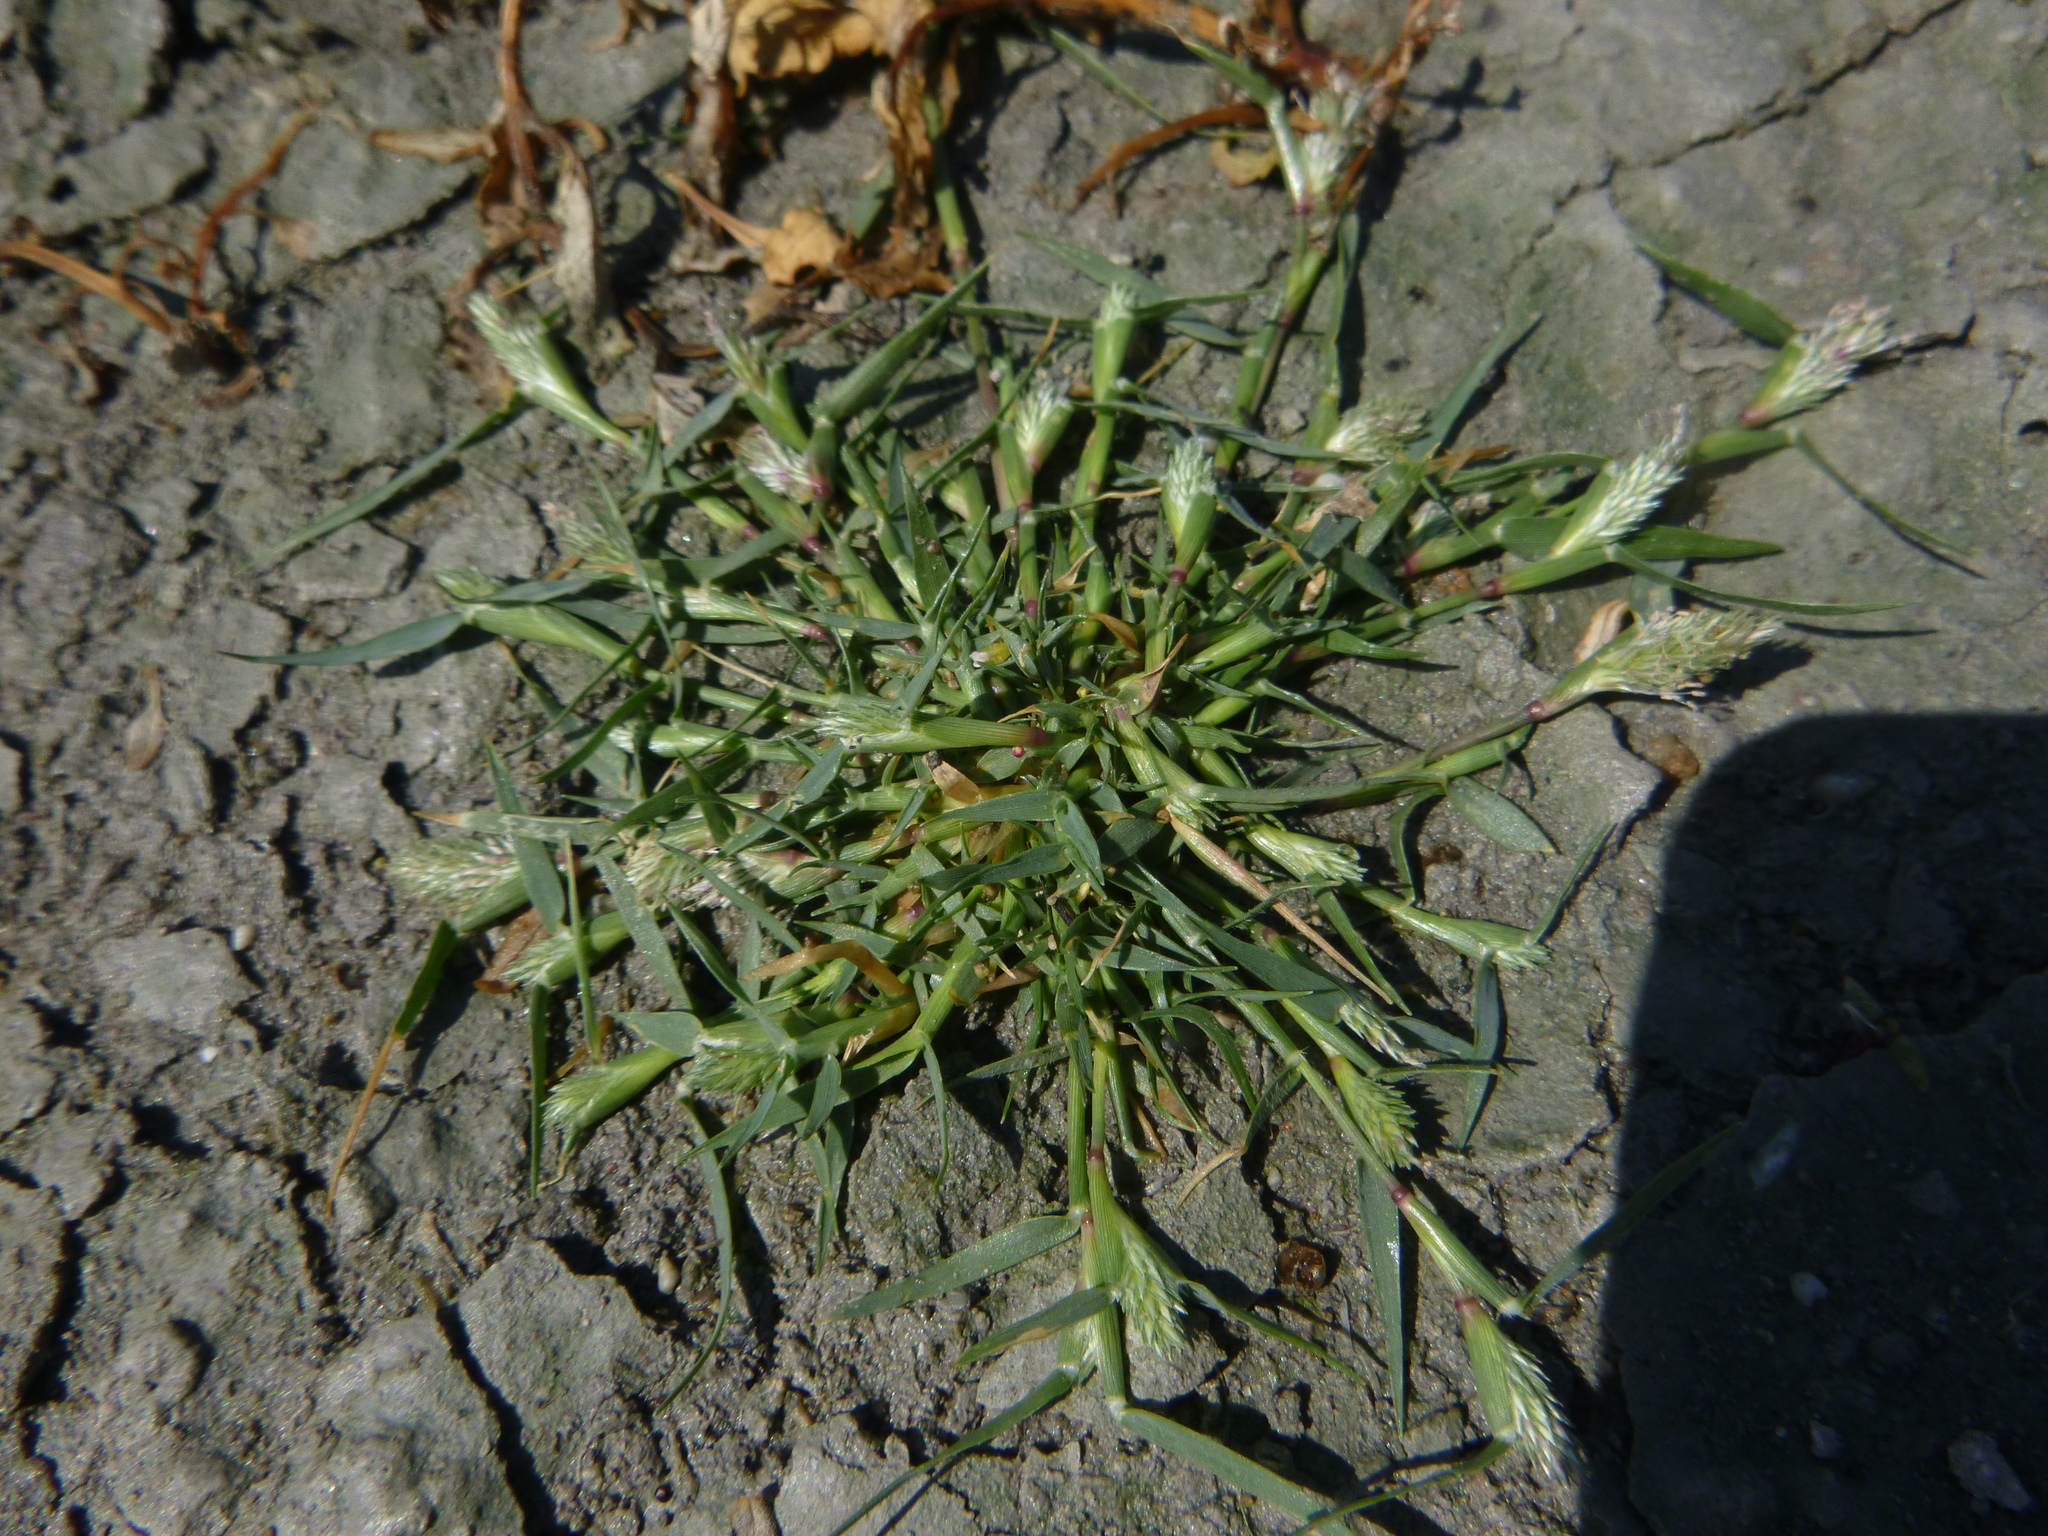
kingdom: Plantae
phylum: Tracheophyta
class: Liliopsida
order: Poales
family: Poaceae
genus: Sporobolus
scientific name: Sporobolus schoenoides
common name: Rush-like timothy
